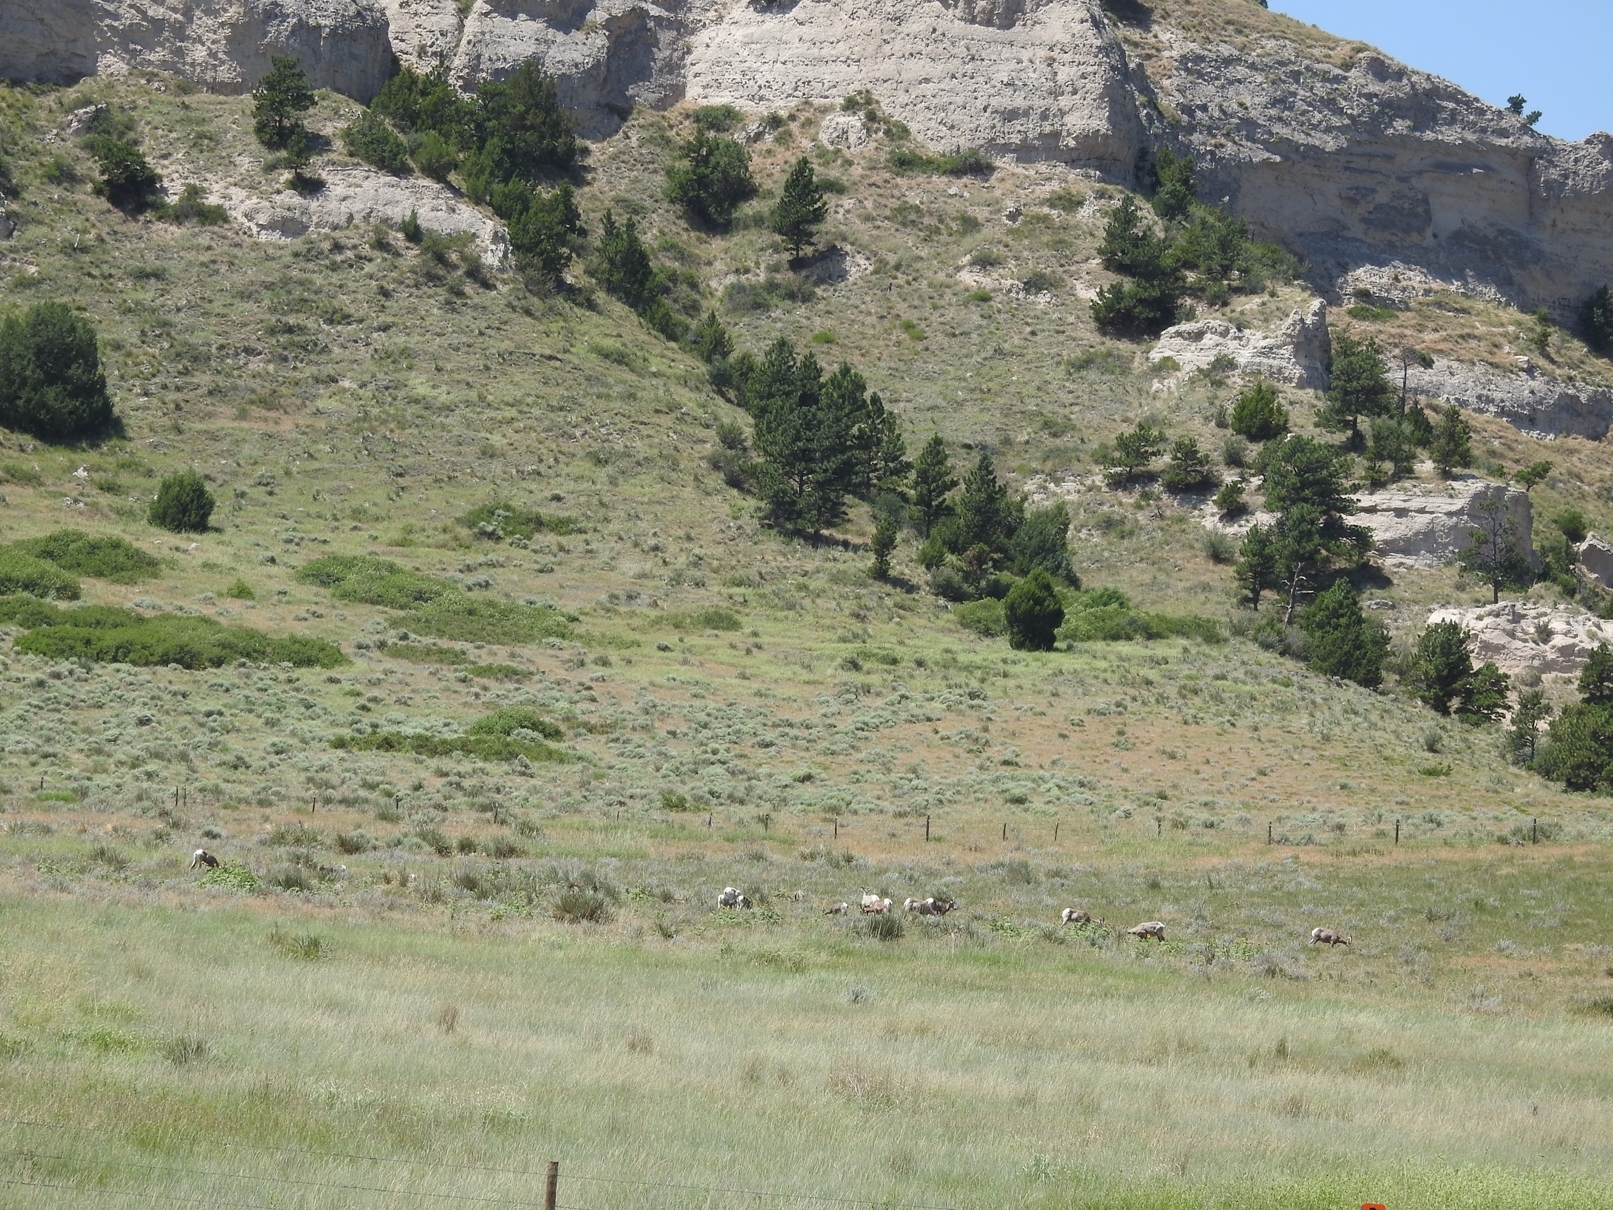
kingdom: Animalia
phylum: Chordata
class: Mammalia
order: Artiodactyla
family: Bovidae
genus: Ovis
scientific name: Ovis canadensis
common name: Bighorn sheep
